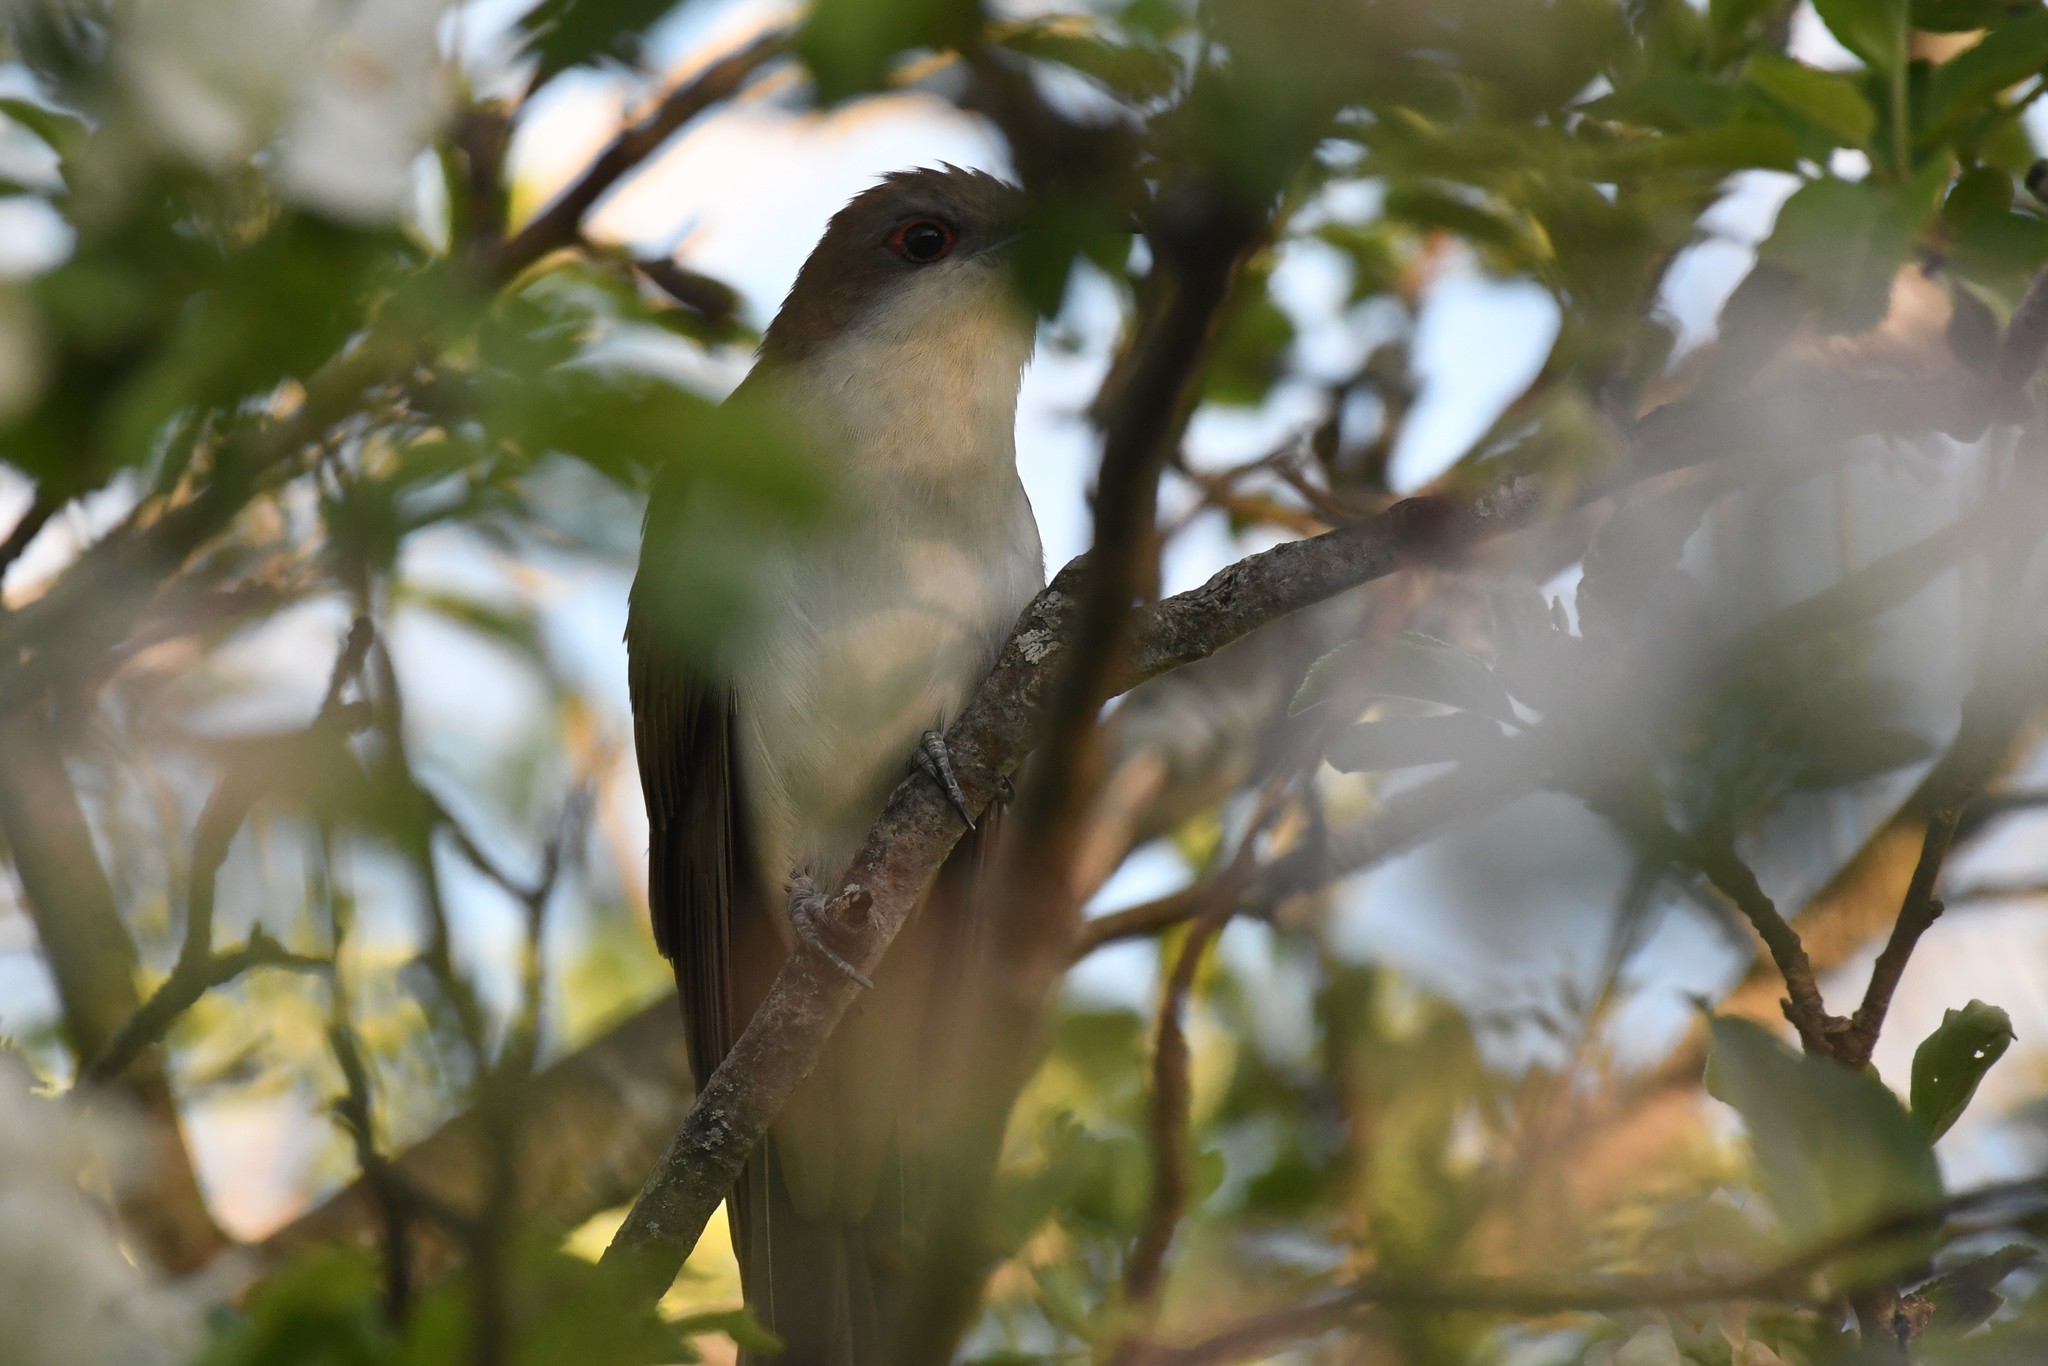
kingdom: Animalia
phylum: Chordata
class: Aves
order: Cuculiformes
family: Cuculidae
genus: Coccyzus
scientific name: Coccyzus erythropthalmus
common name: Black-billed cuckoo
